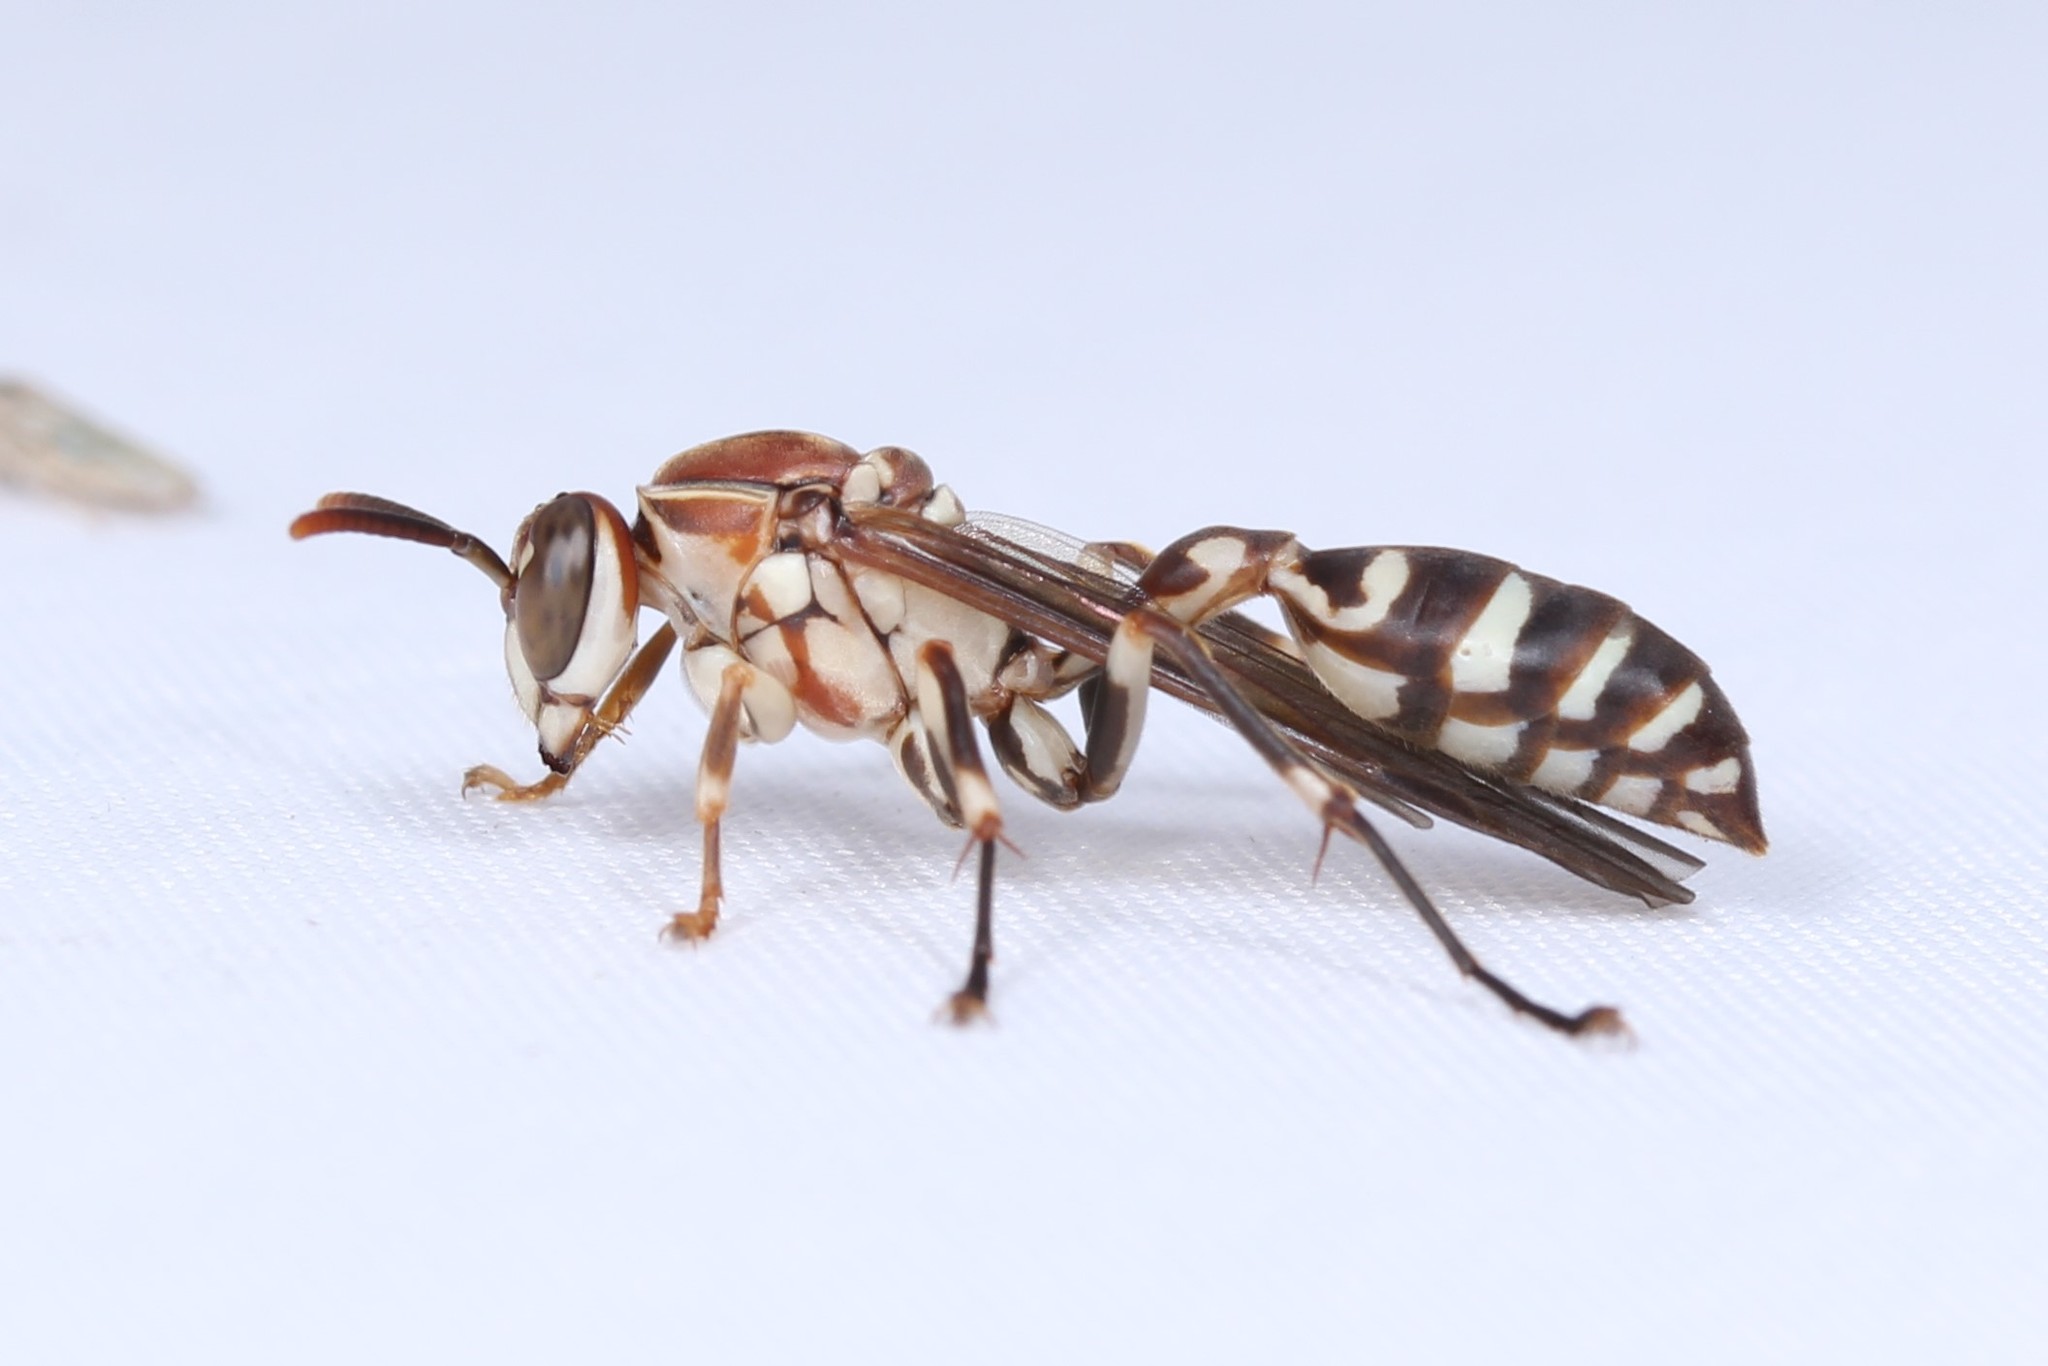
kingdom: Animalia
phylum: Arthropoda
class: Insecta
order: Hymenoptera
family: Vespidae
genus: Parapolybia
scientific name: Parapolybia nodosa
